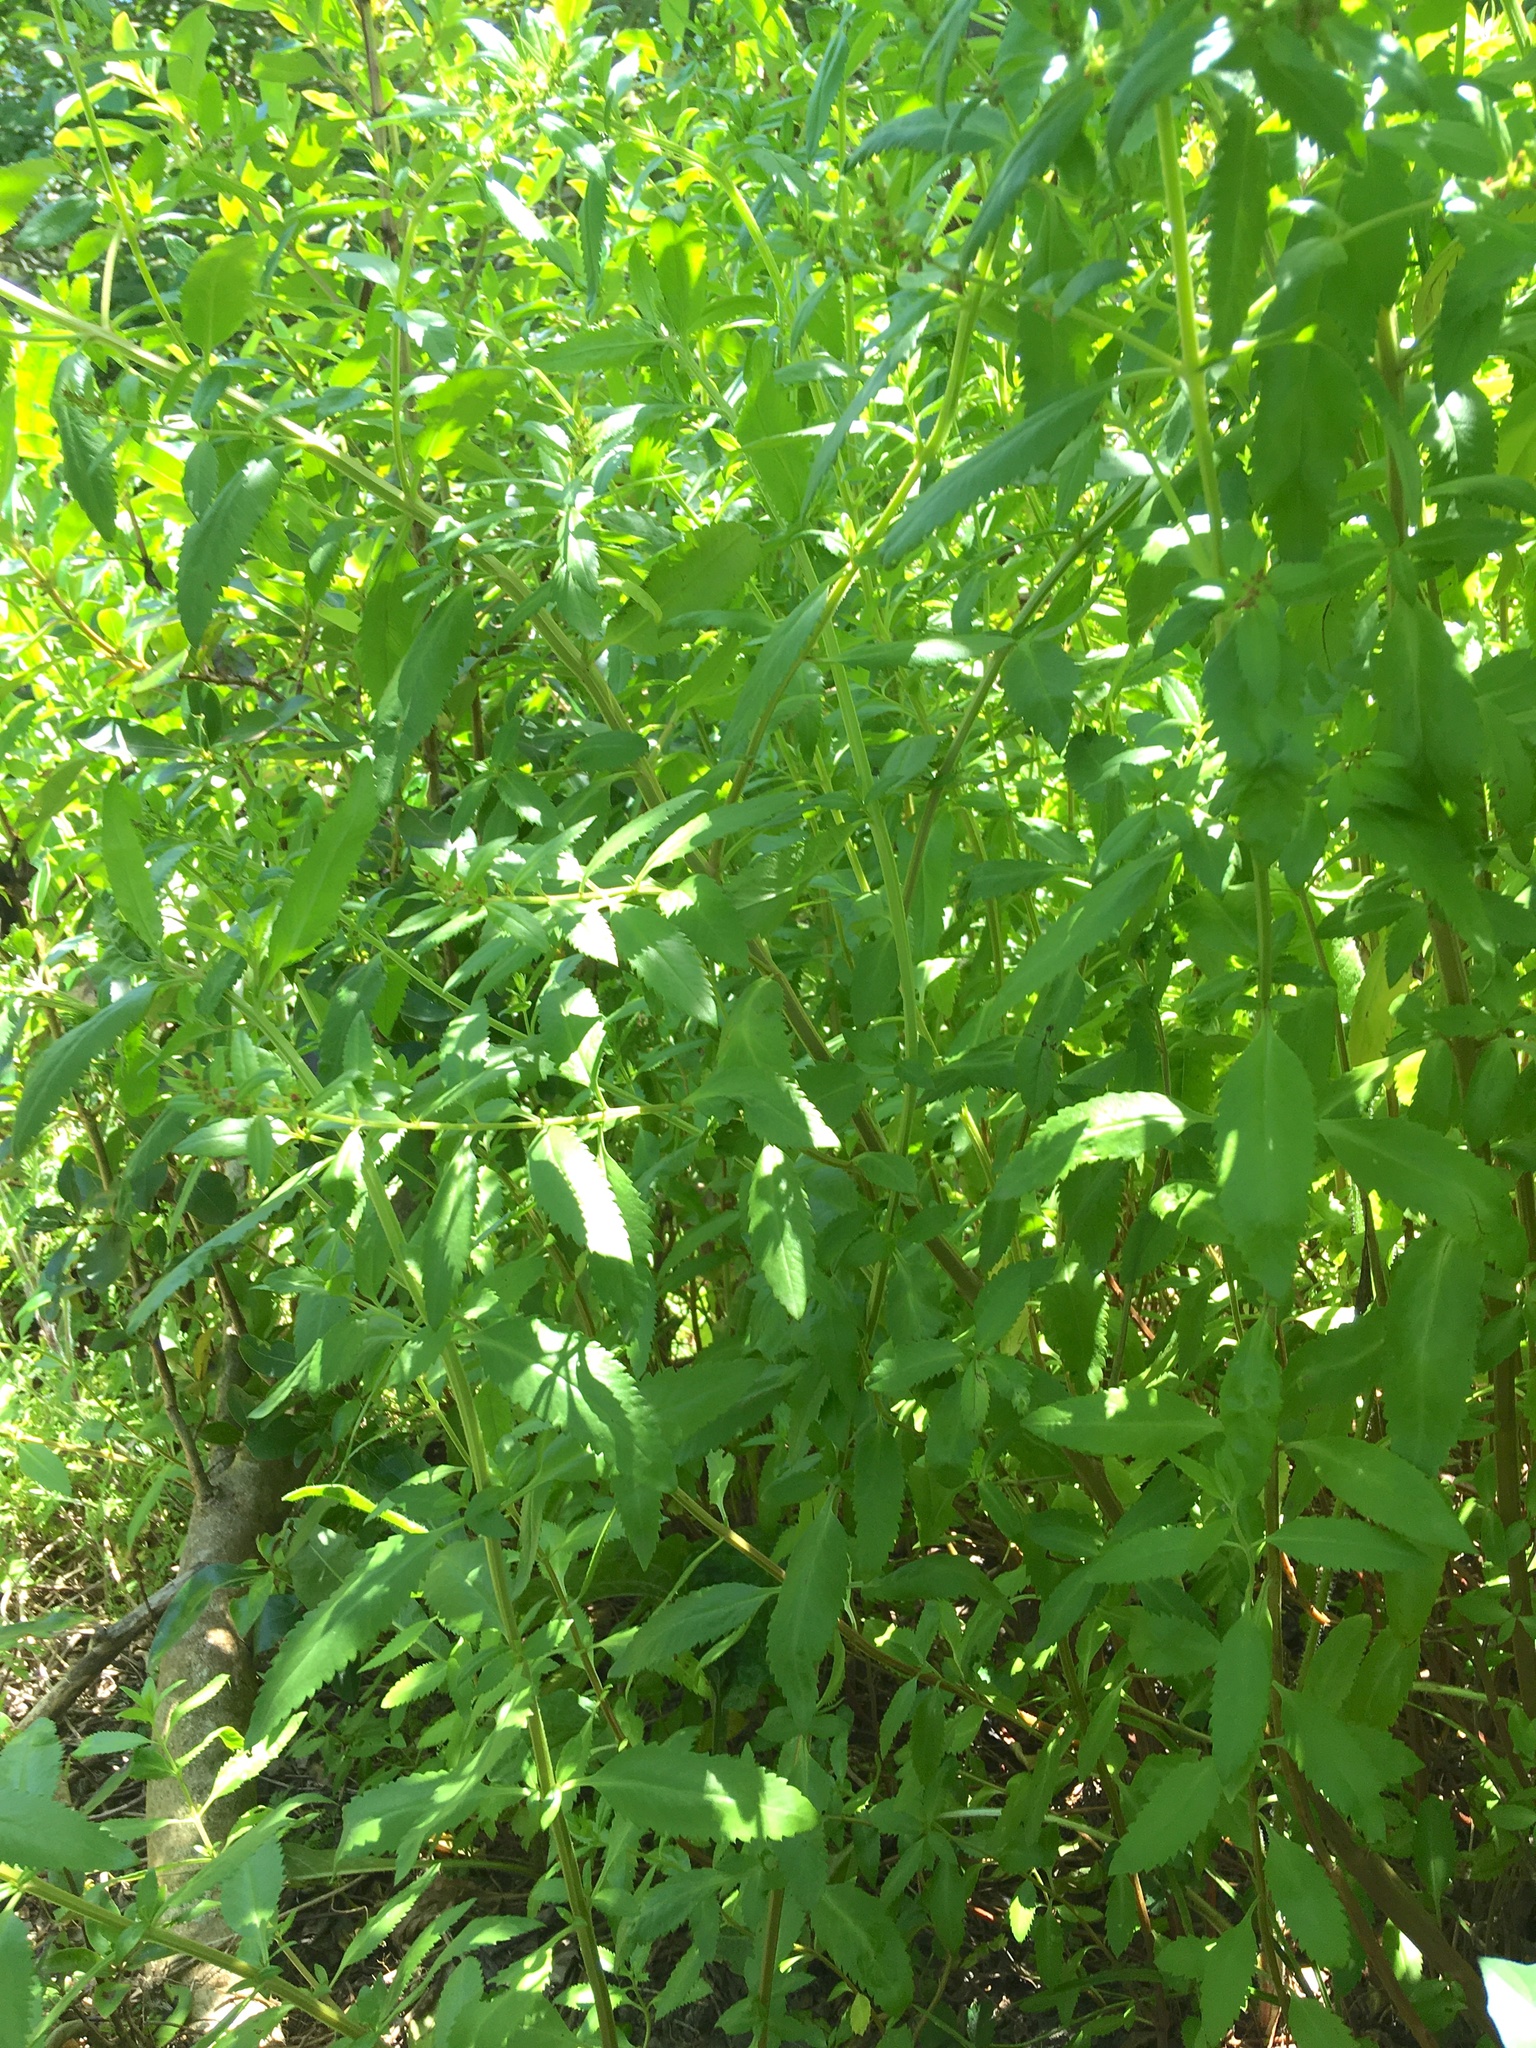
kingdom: Plantae
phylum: Tracheophyta
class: Magnoliopsida
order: Saxifragales
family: Haloragaceae
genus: Haloragis
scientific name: Haloragis erecta
